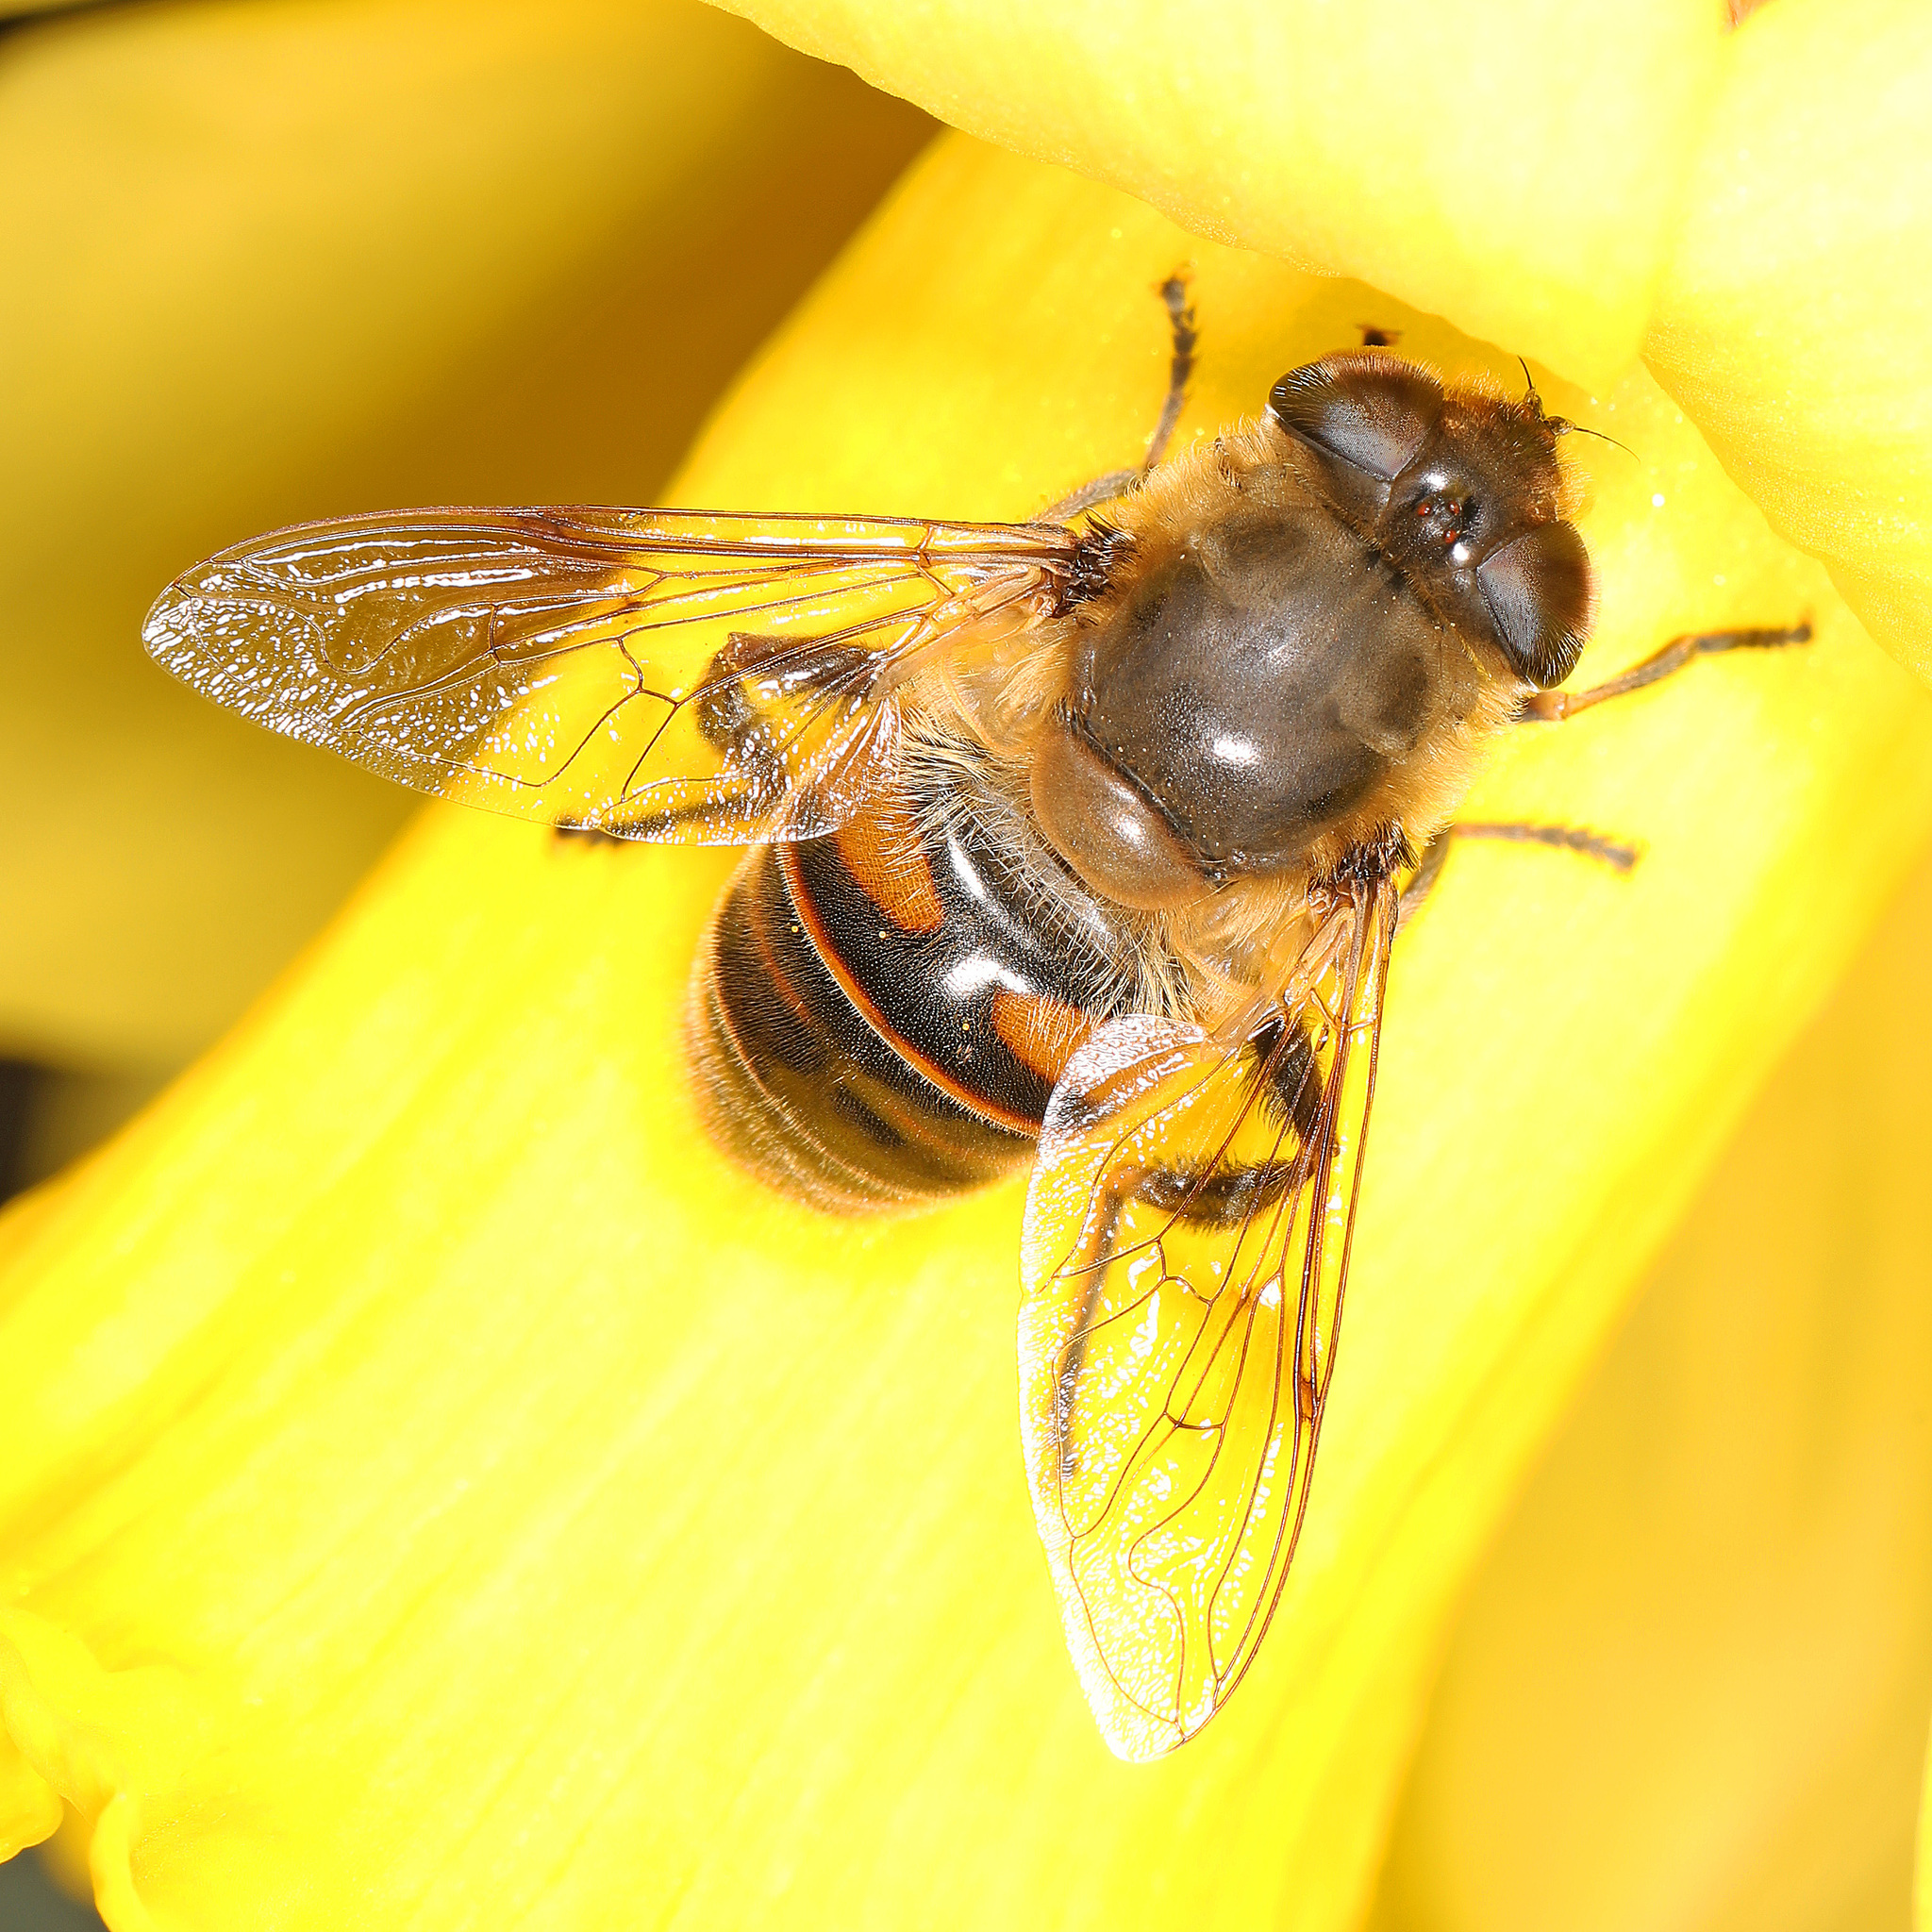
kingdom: Animalia
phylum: Arthropoda
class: Insecta
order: Diptera
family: Syrphidae
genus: Eristalis
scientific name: Eristalis tenax
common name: Drone fly
